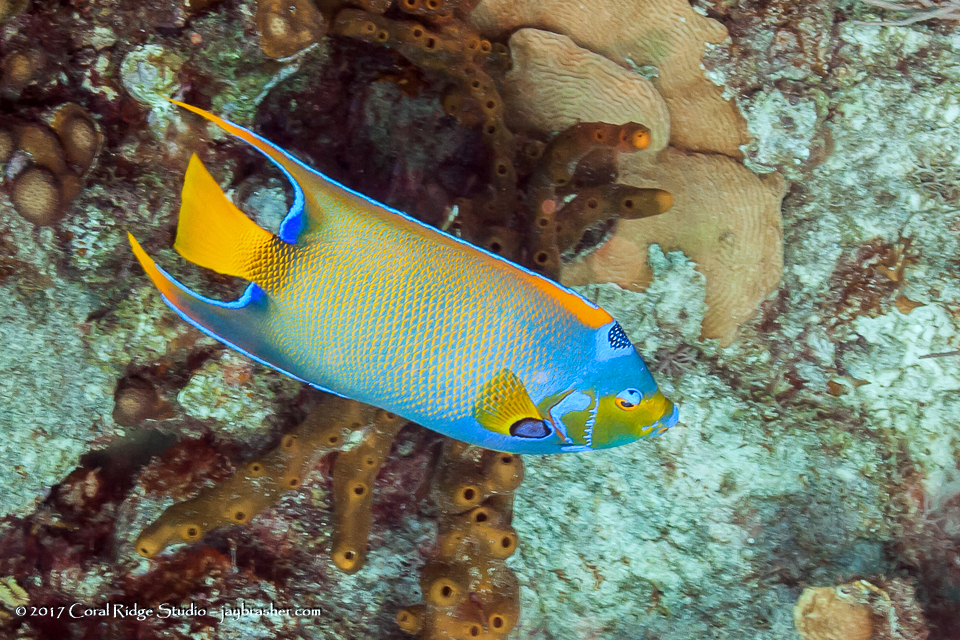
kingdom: Animalia
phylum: Chordata
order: Perciformes
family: Pomacanthidae
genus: Holacanthus
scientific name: Holacanthus ciliaris
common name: Queen angelfish
